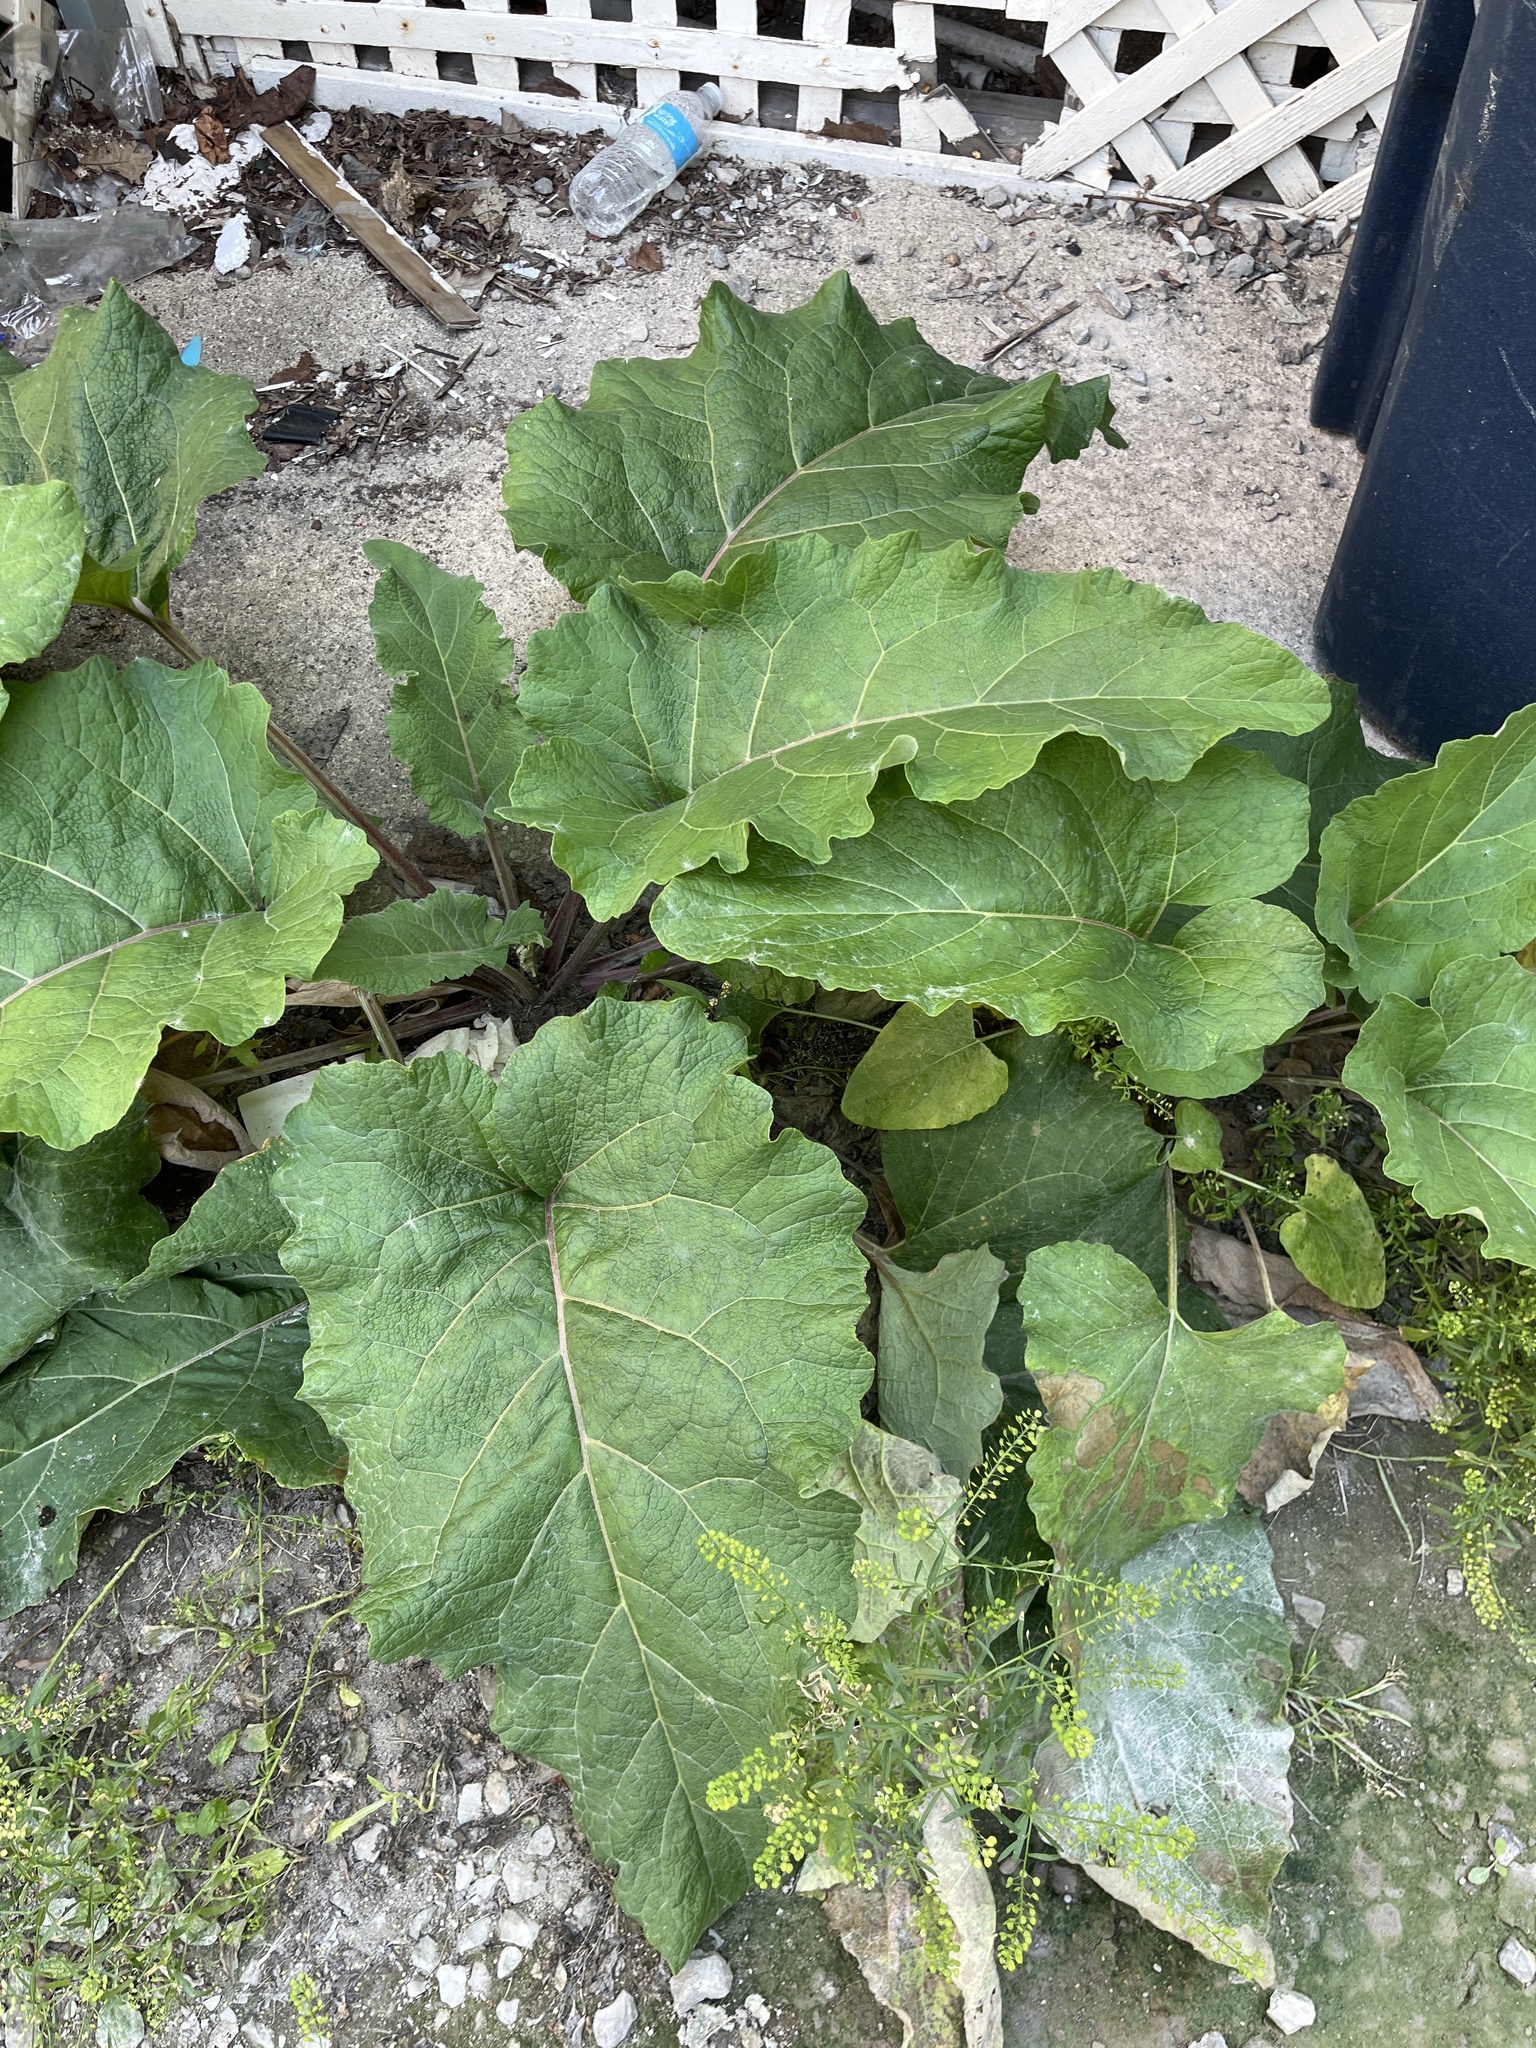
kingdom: Plantae
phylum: Tracheophyta
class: Magnoliopsida
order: Asterales
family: Asteraceae
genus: Arctium
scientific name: Arctium
